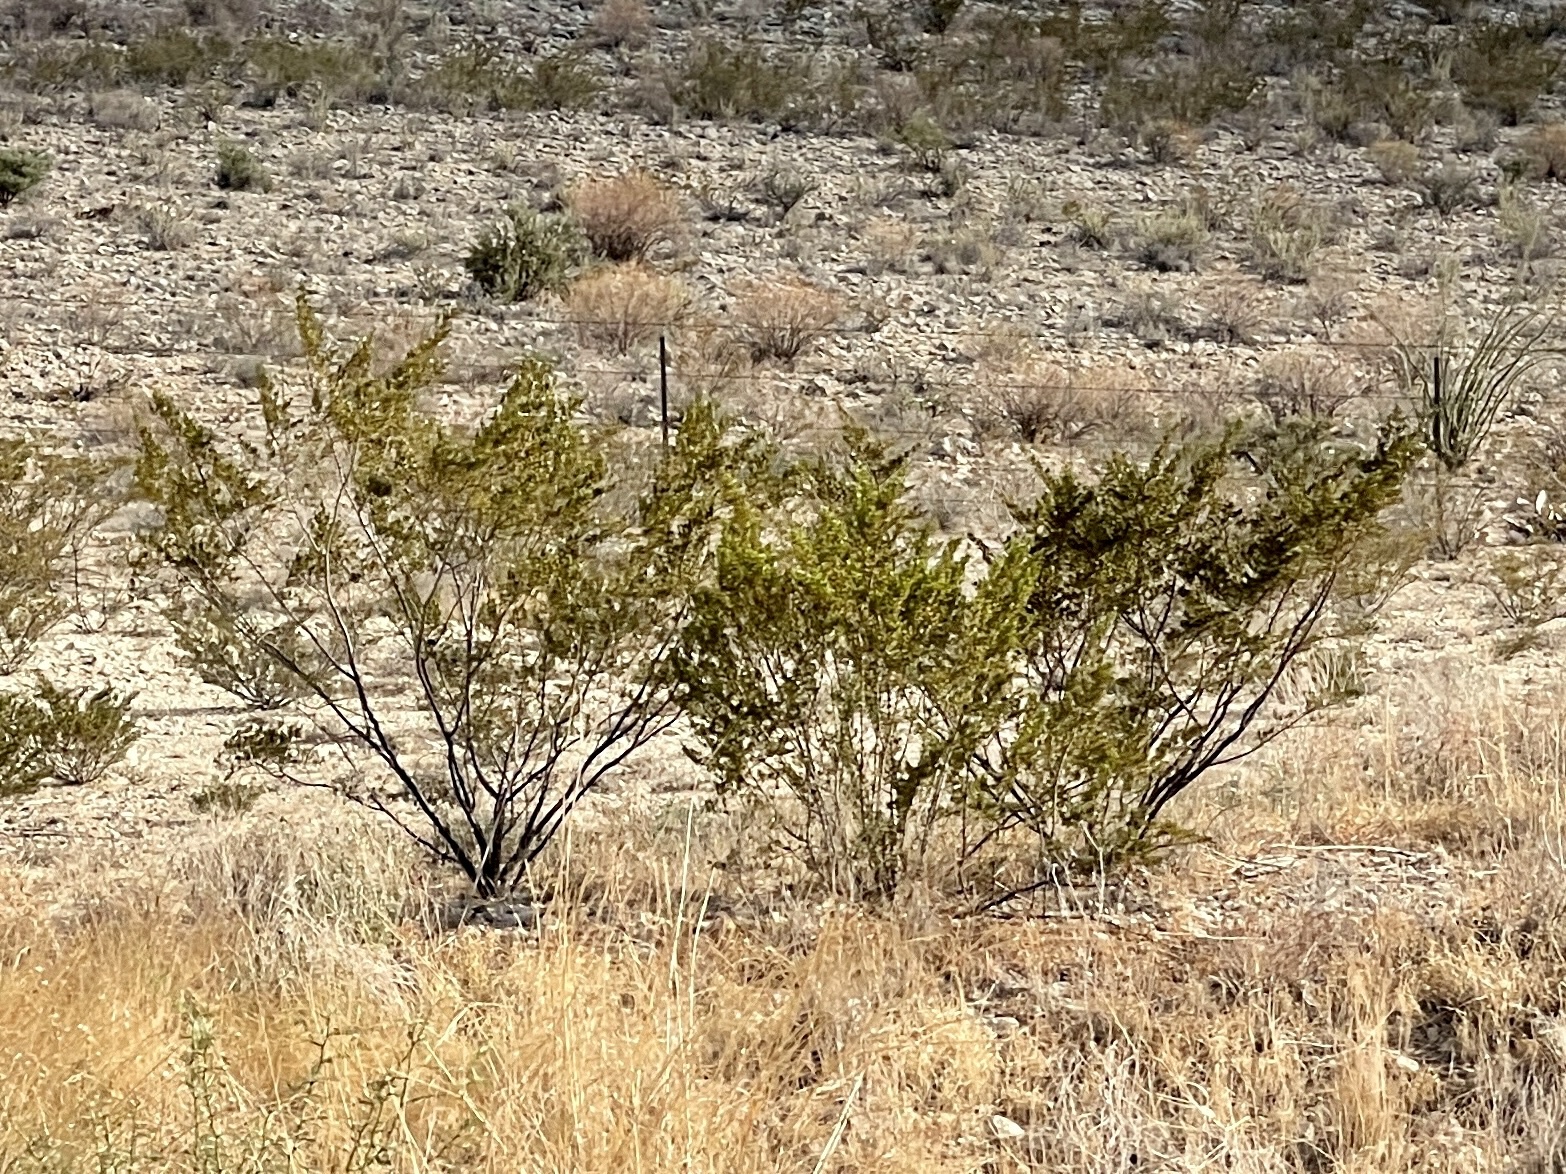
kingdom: Plantae
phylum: Tracheophyta
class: Magnoliopsida
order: Zygophyllales
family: Zygophyllaceae
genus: Larrea
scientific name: Larrea tridentata
